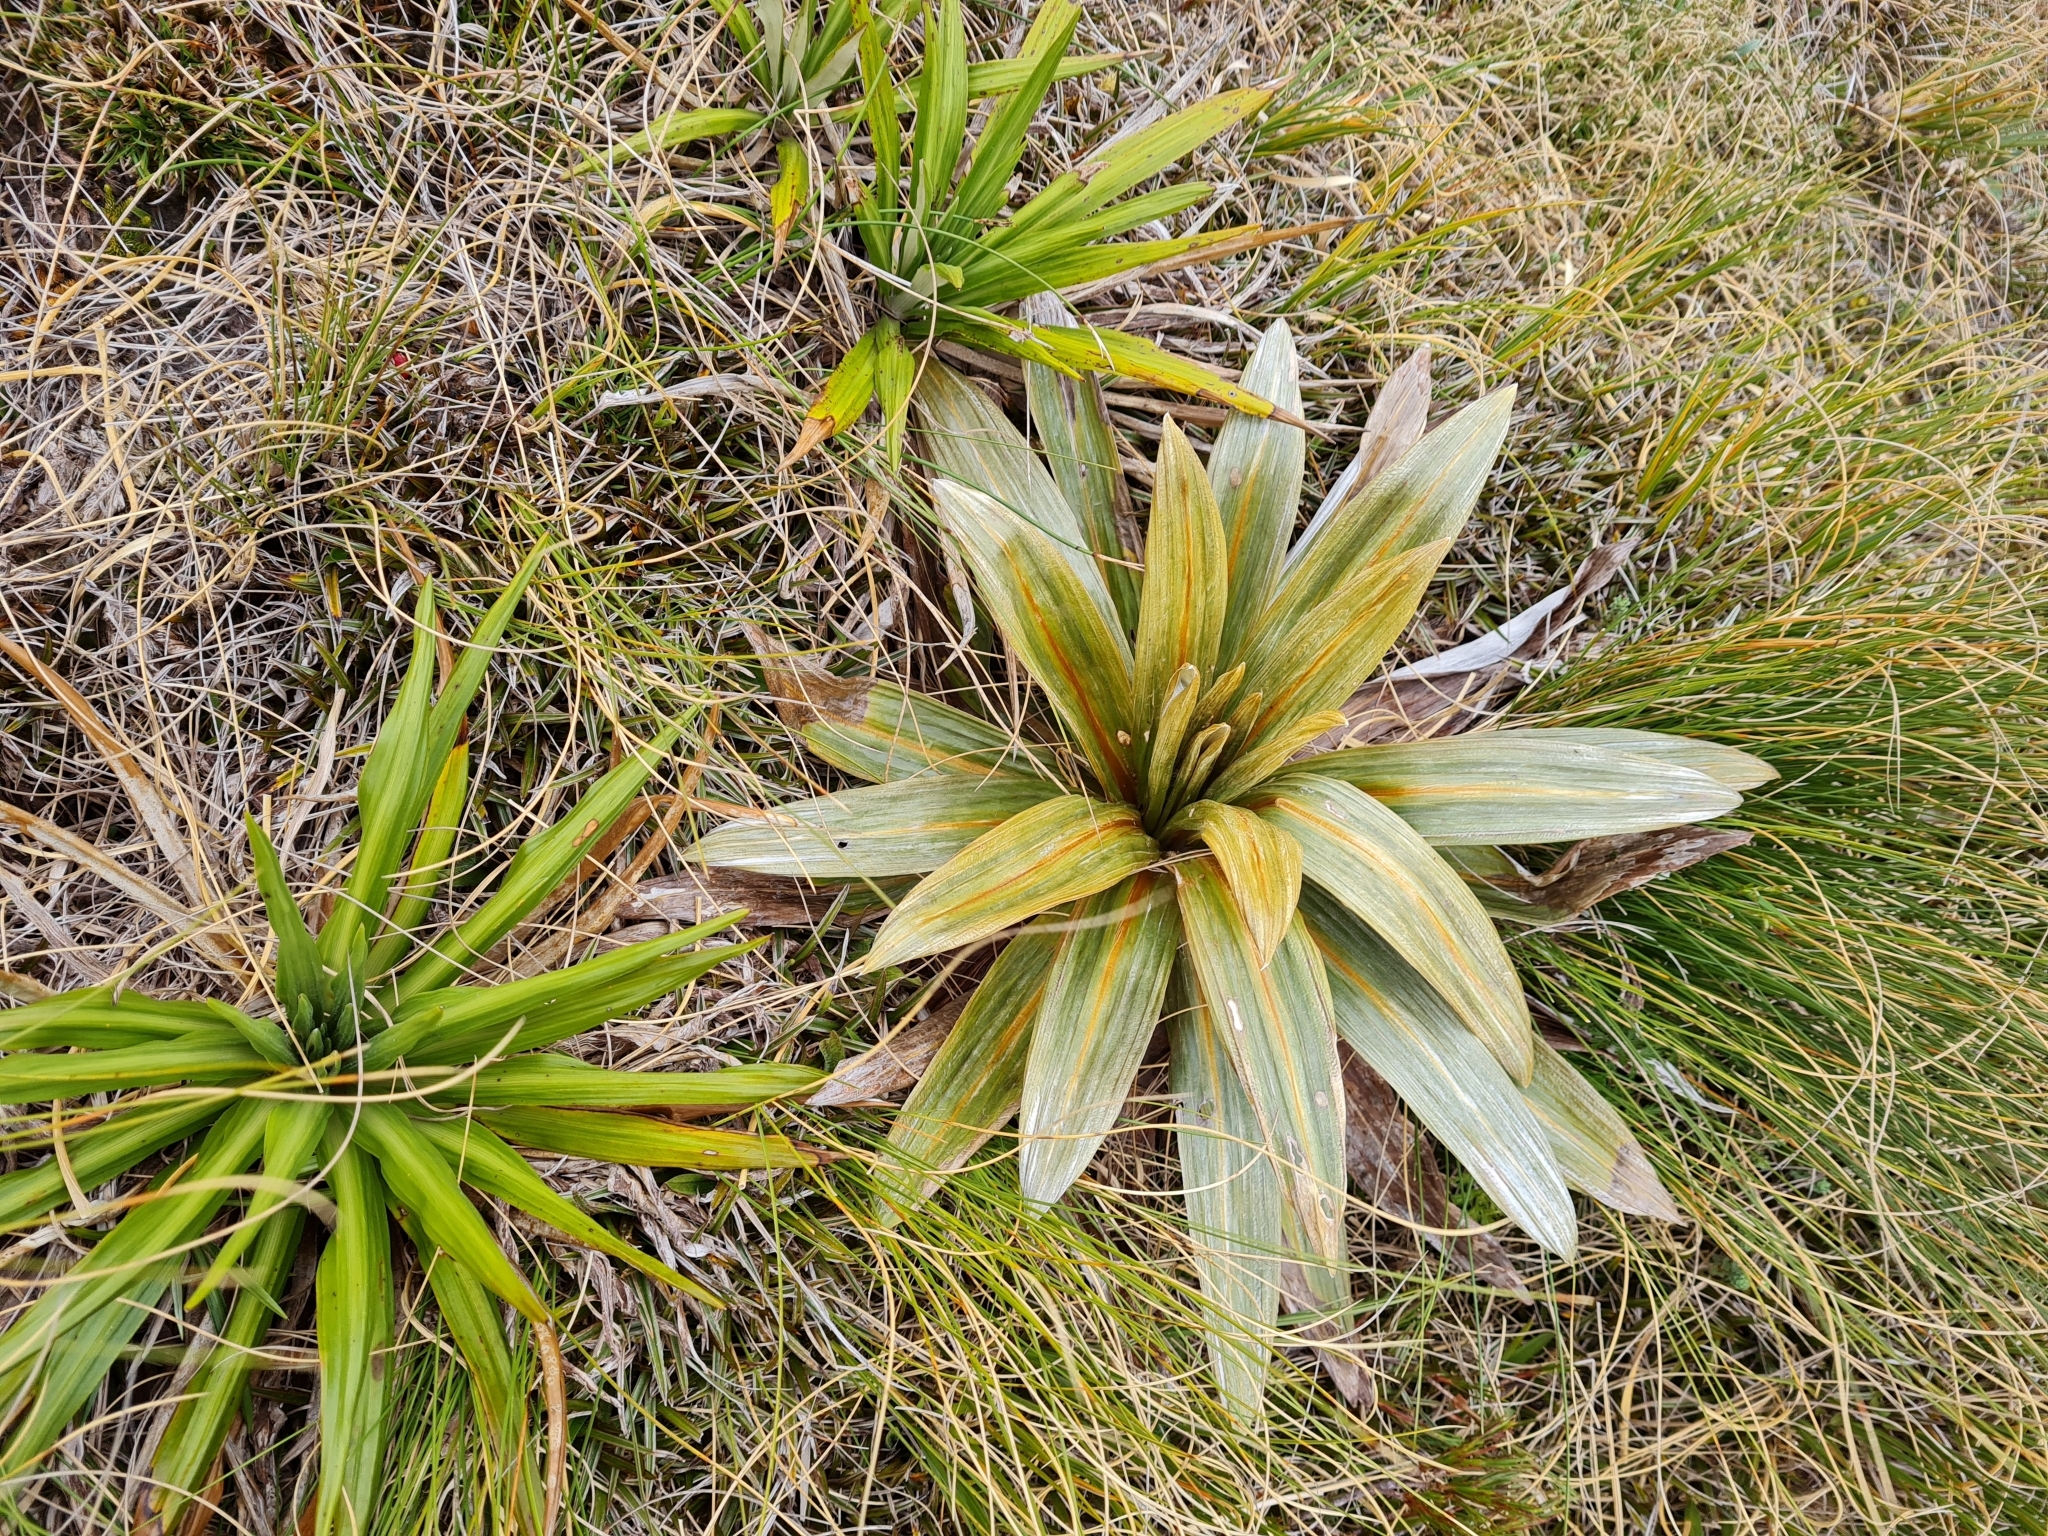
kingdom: Plantae
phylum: Tracheophyta
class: Magnoliopsida
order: Asterales
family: Asteraceae
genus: Celmisia
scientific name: Celmisia coriacea
